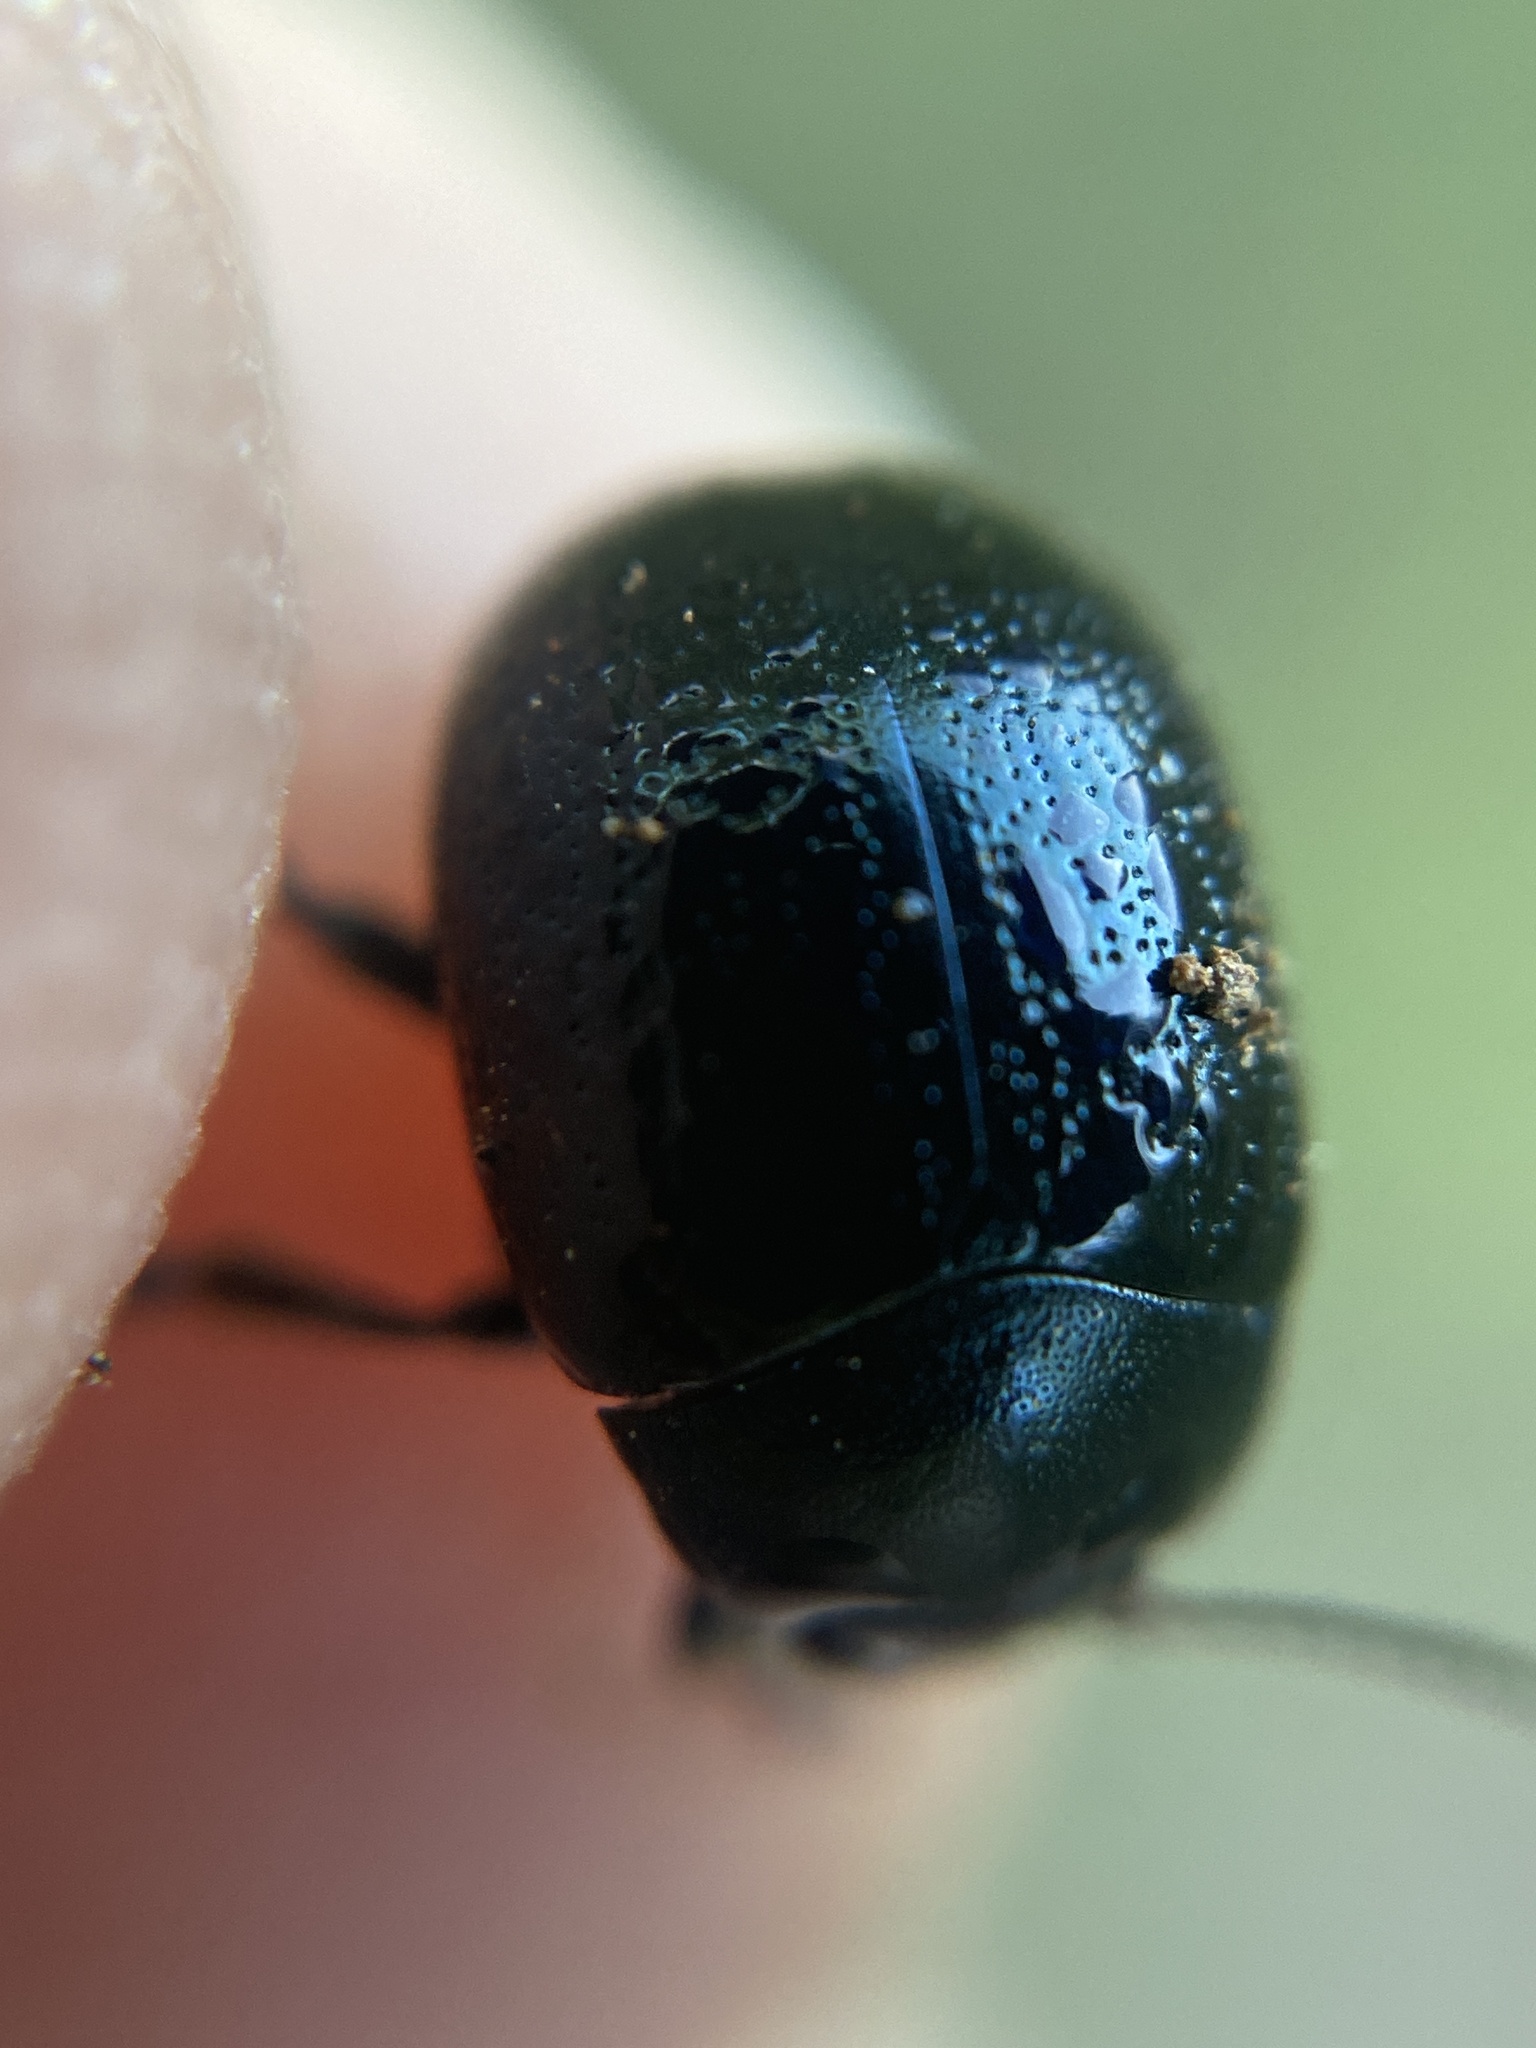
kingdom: Animalia
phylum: Arthropoda
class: Insecta
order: Coleoptera
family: Chrysomelidae
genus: Chrysolina
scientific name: Chrysolina haemoptera
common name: Plantain leaf beetle
